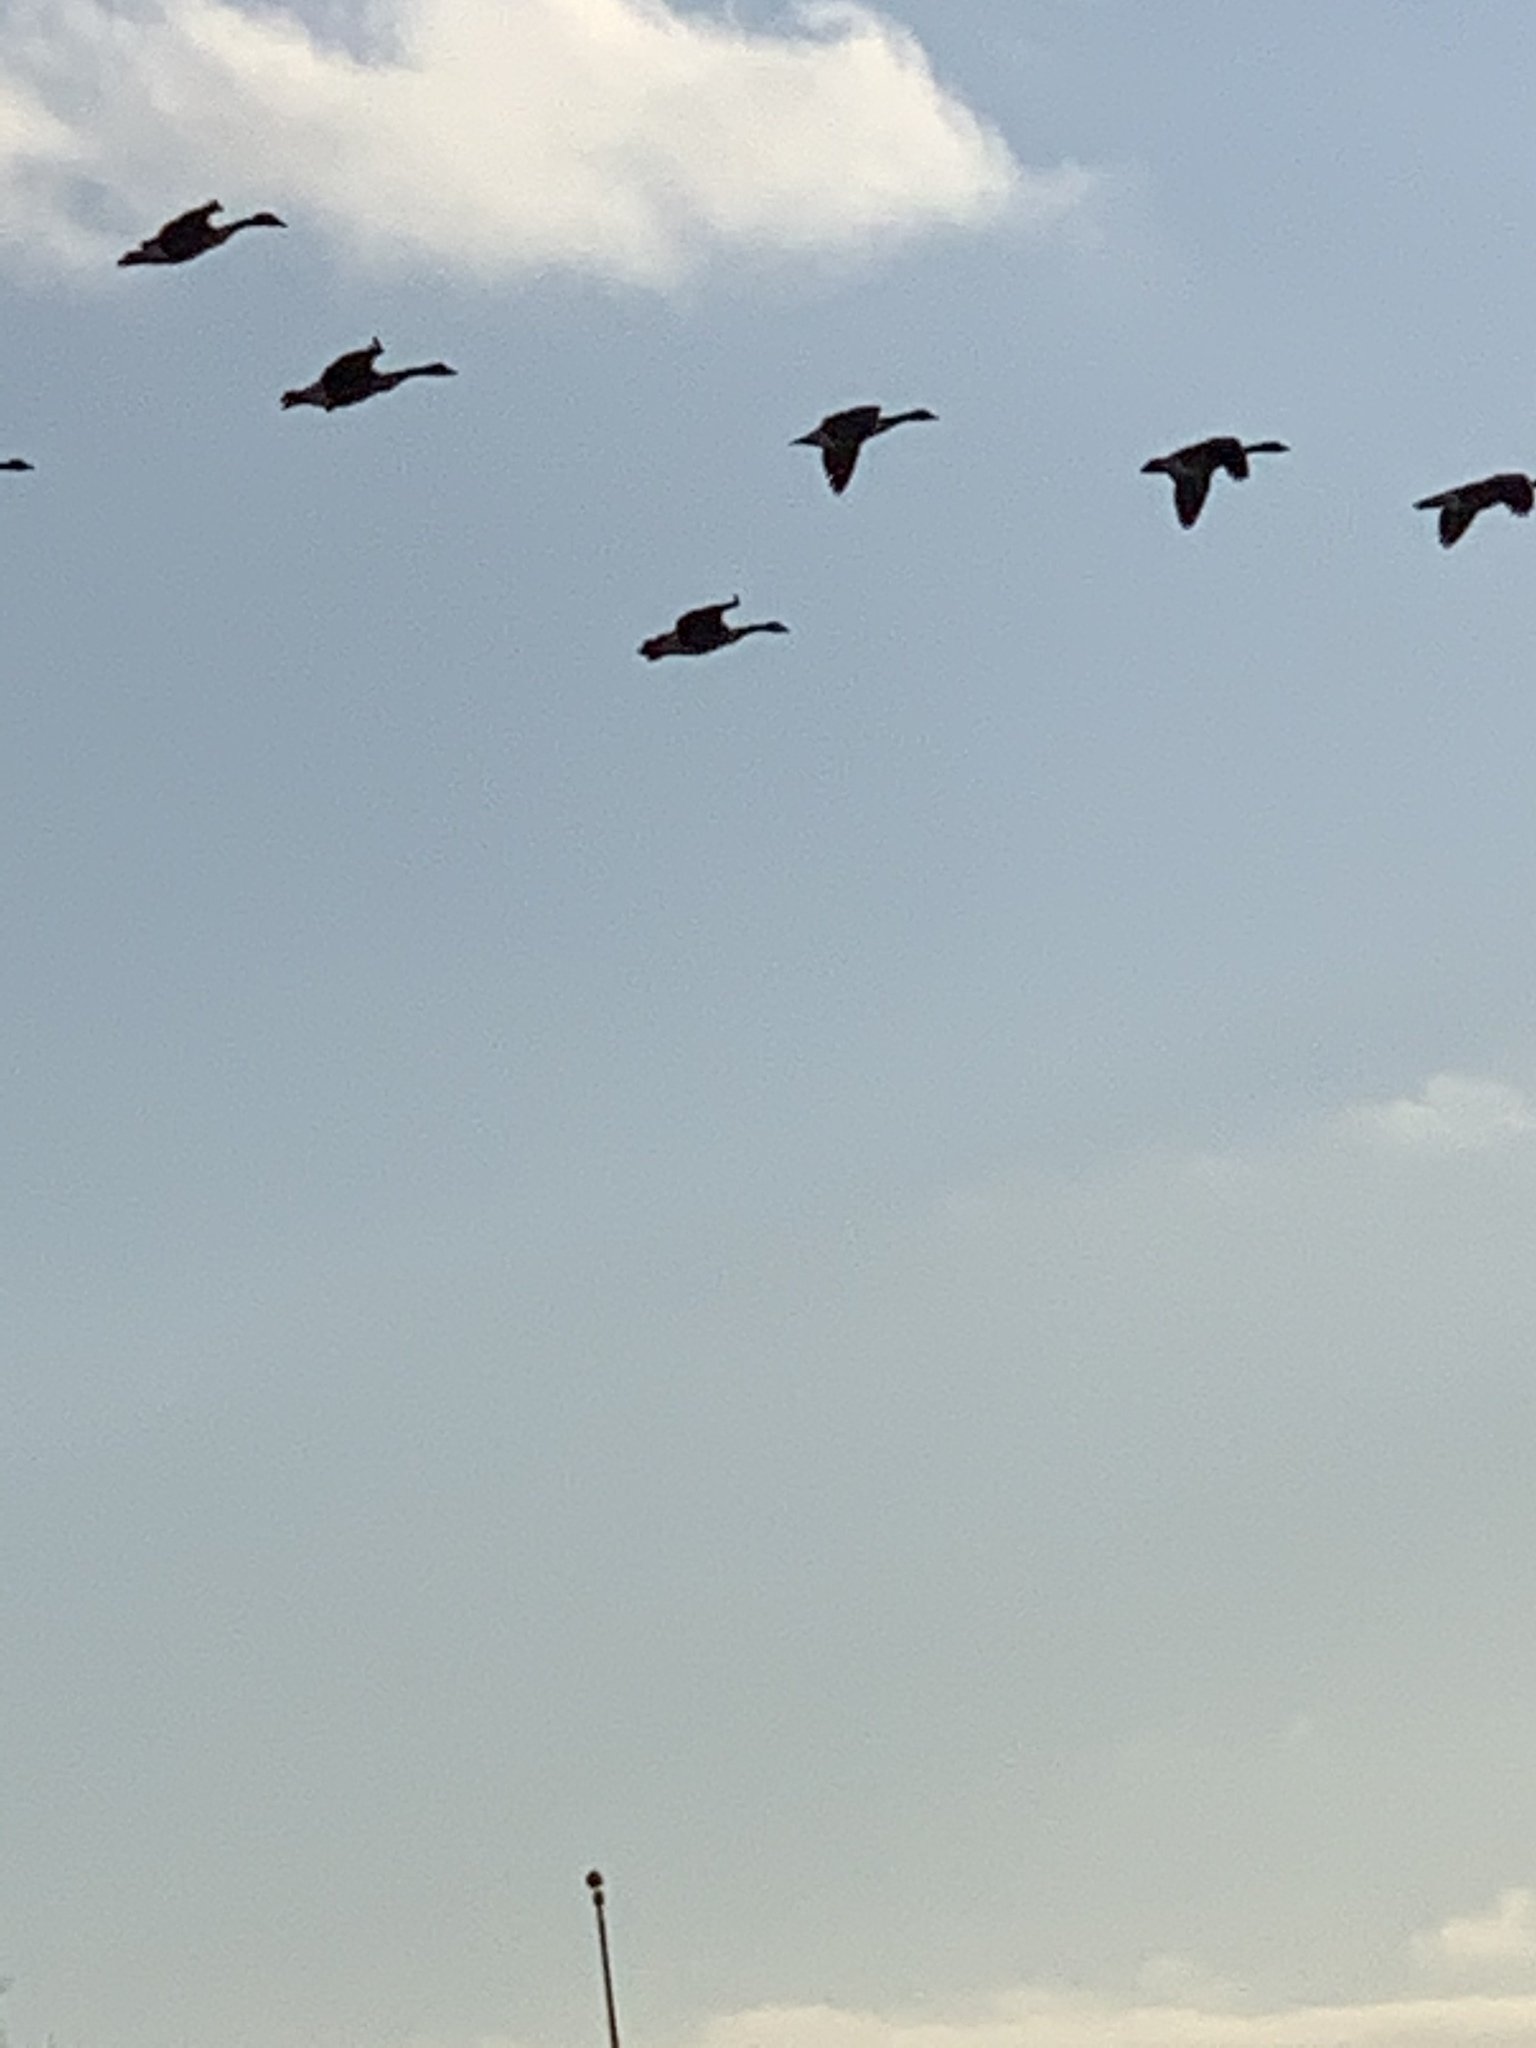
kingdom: Animalia
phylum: Chordata
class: Aves
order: Anseriformes
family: Anatidae
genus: Branta
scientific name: Branta canadensis
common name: Canada goose
